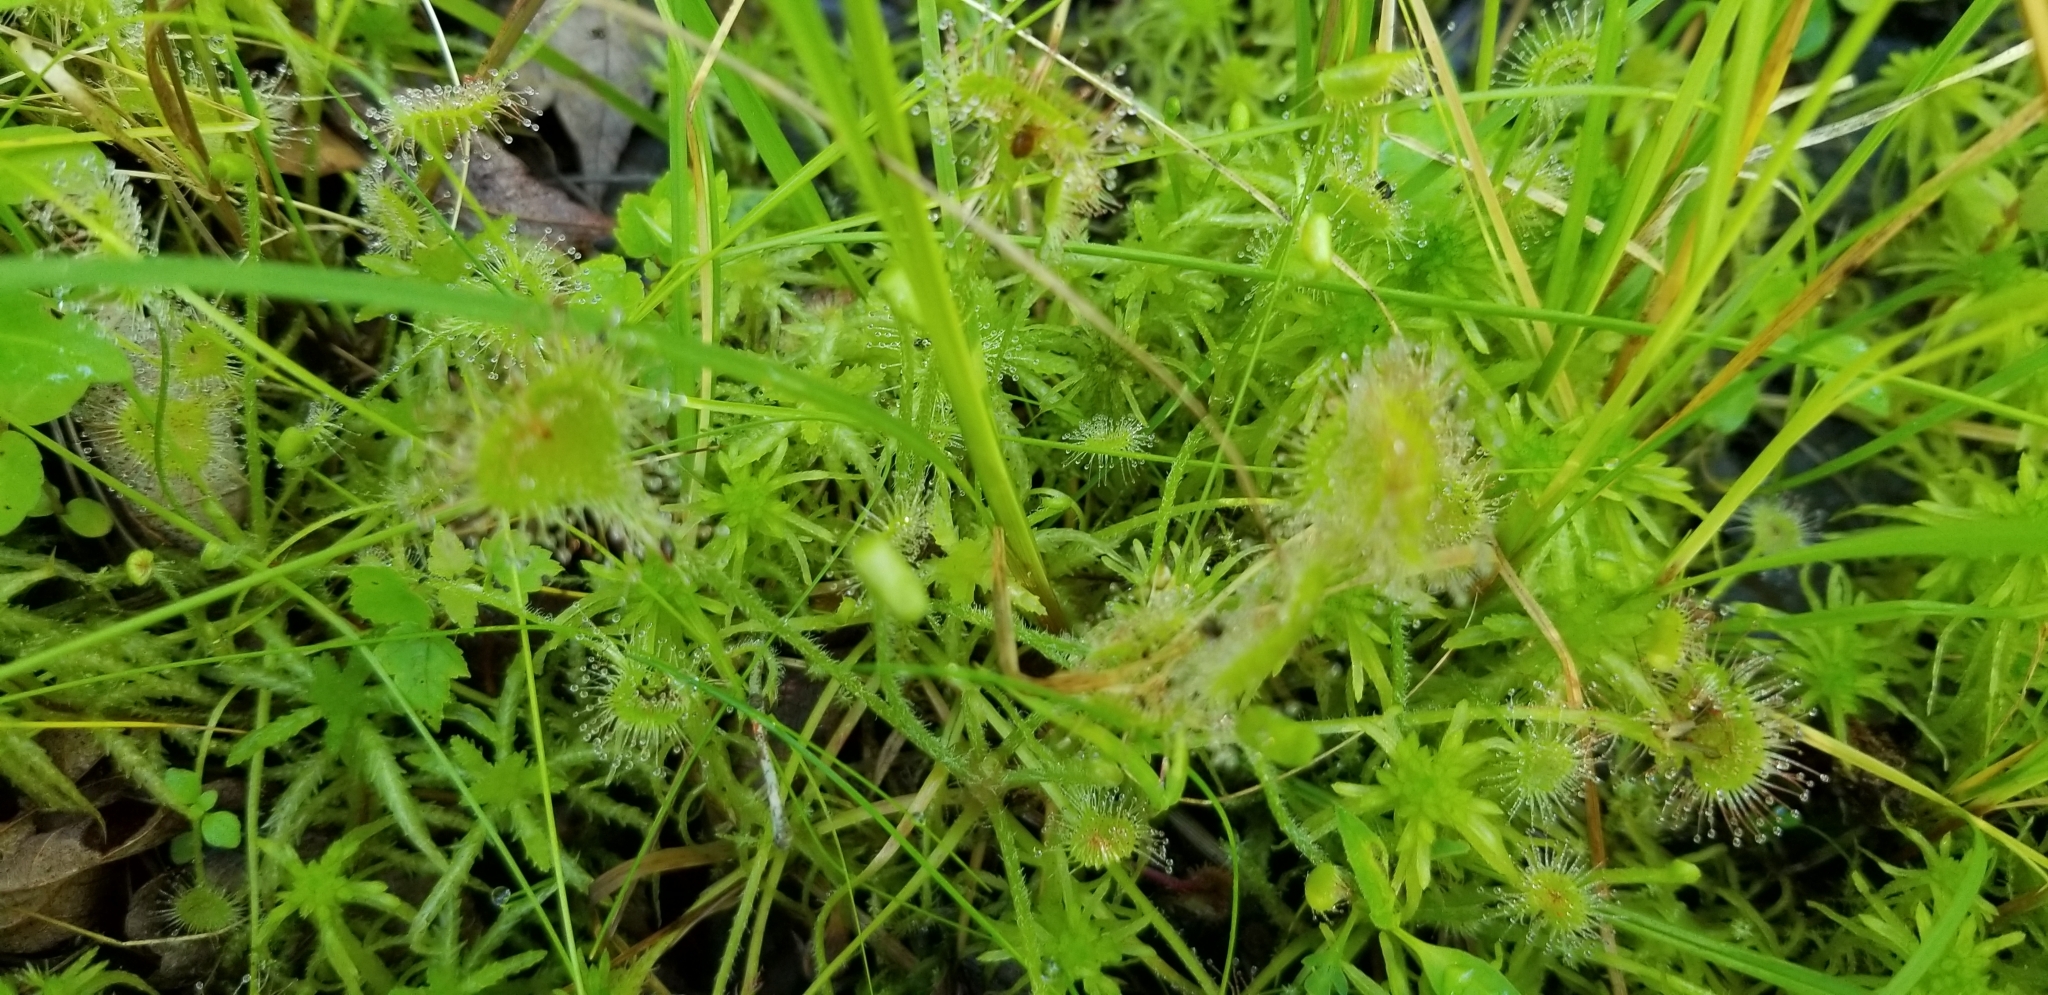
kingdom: Plantae
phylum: Tracheophyta
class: Magnoliopsida
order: Caryophyllales
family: Droseraceae
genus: Drosera
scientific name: Drosera rotundifolia
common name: Round-leaved sundew
